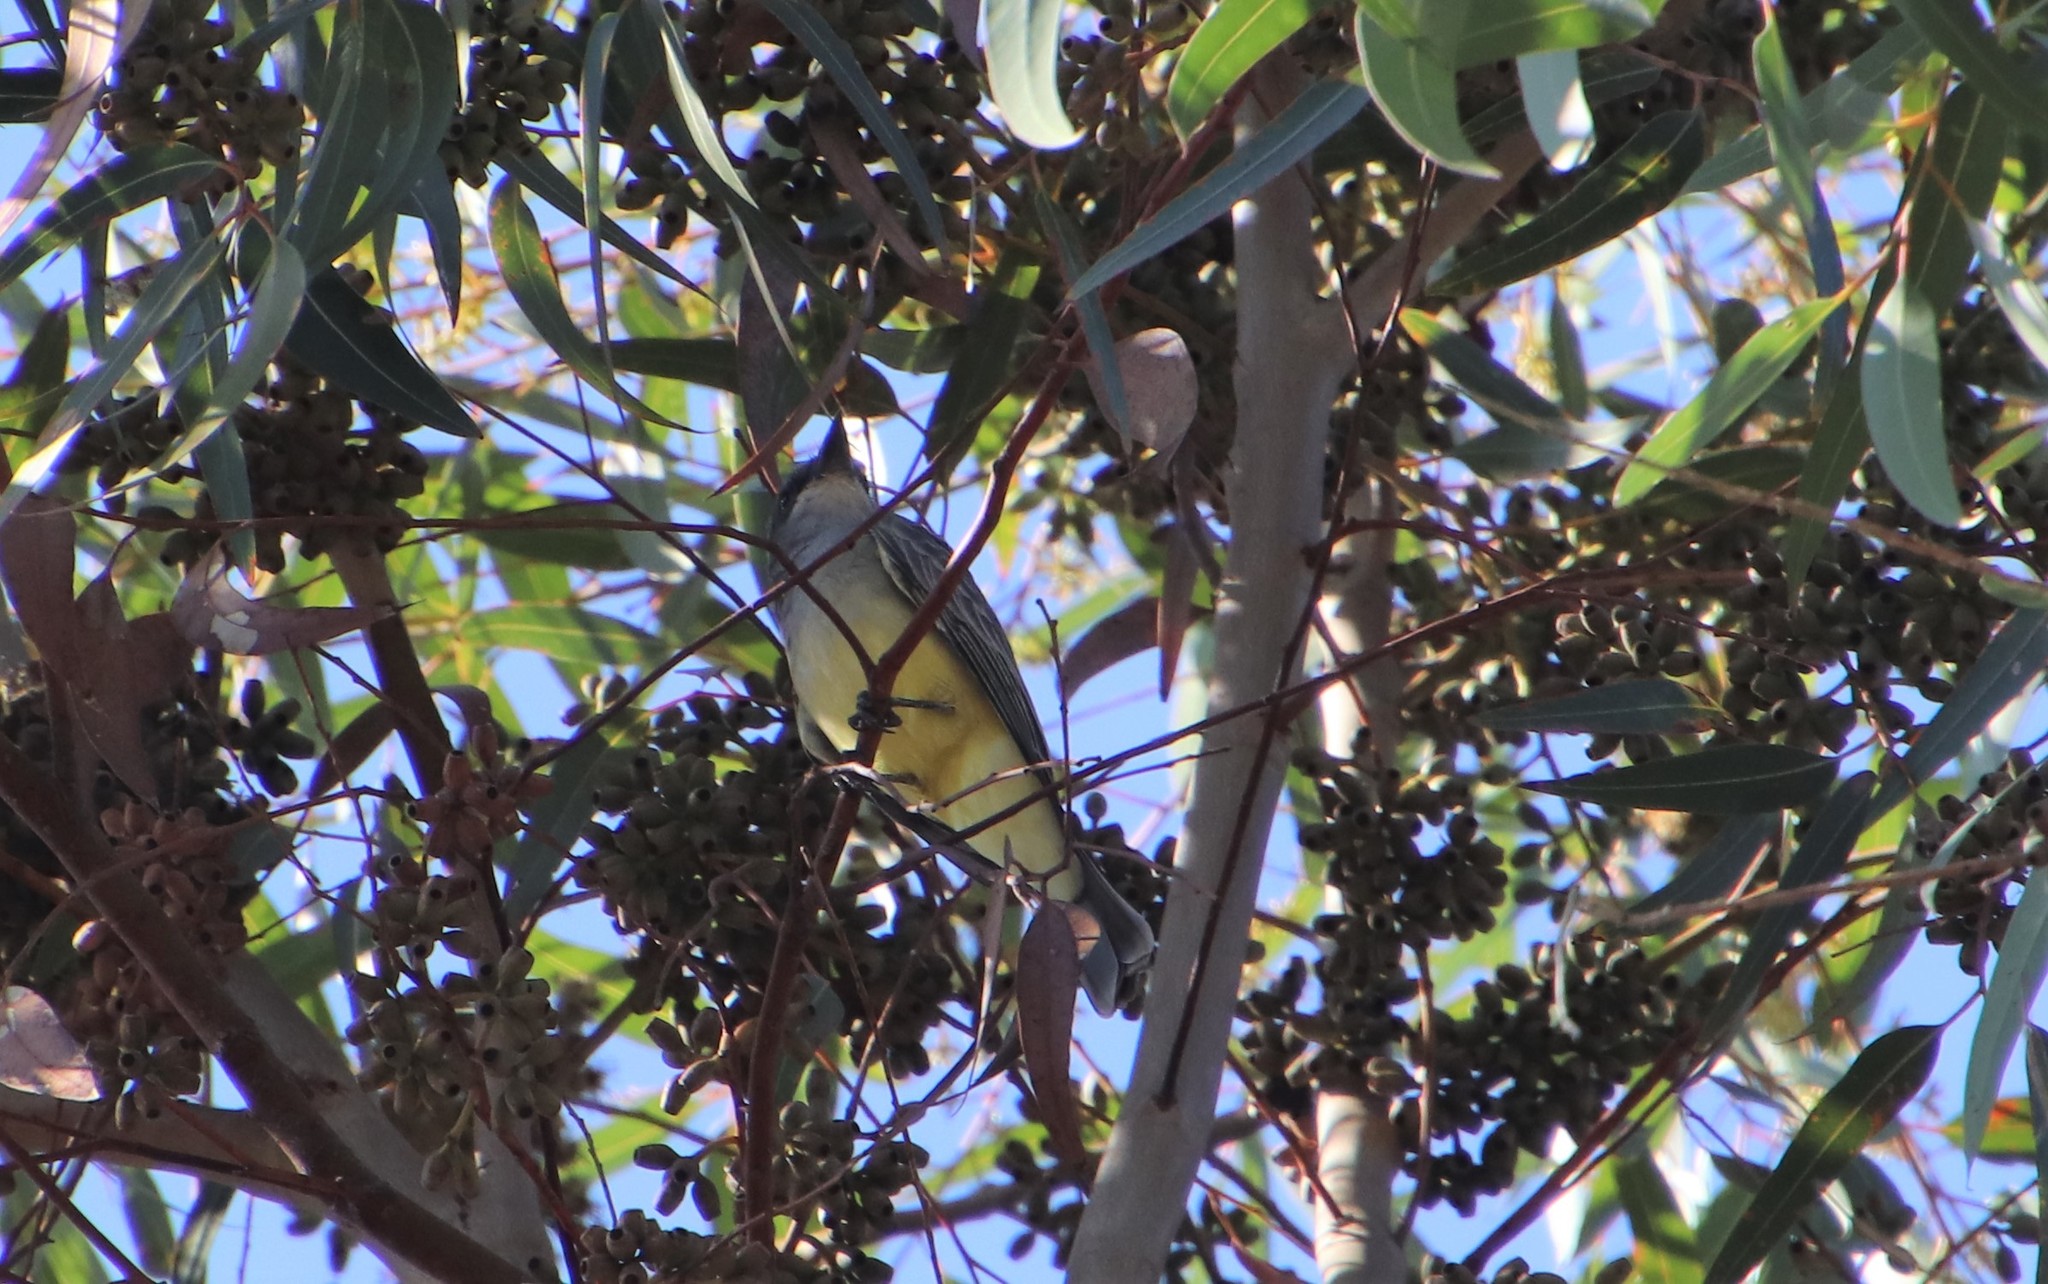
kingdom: Animalia
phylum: Chordata
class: Aves
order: Passeriformes
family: Tyrannidae
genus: Tyrannus
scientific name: Tyrannus vociferans
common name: Cassin's kingbird
